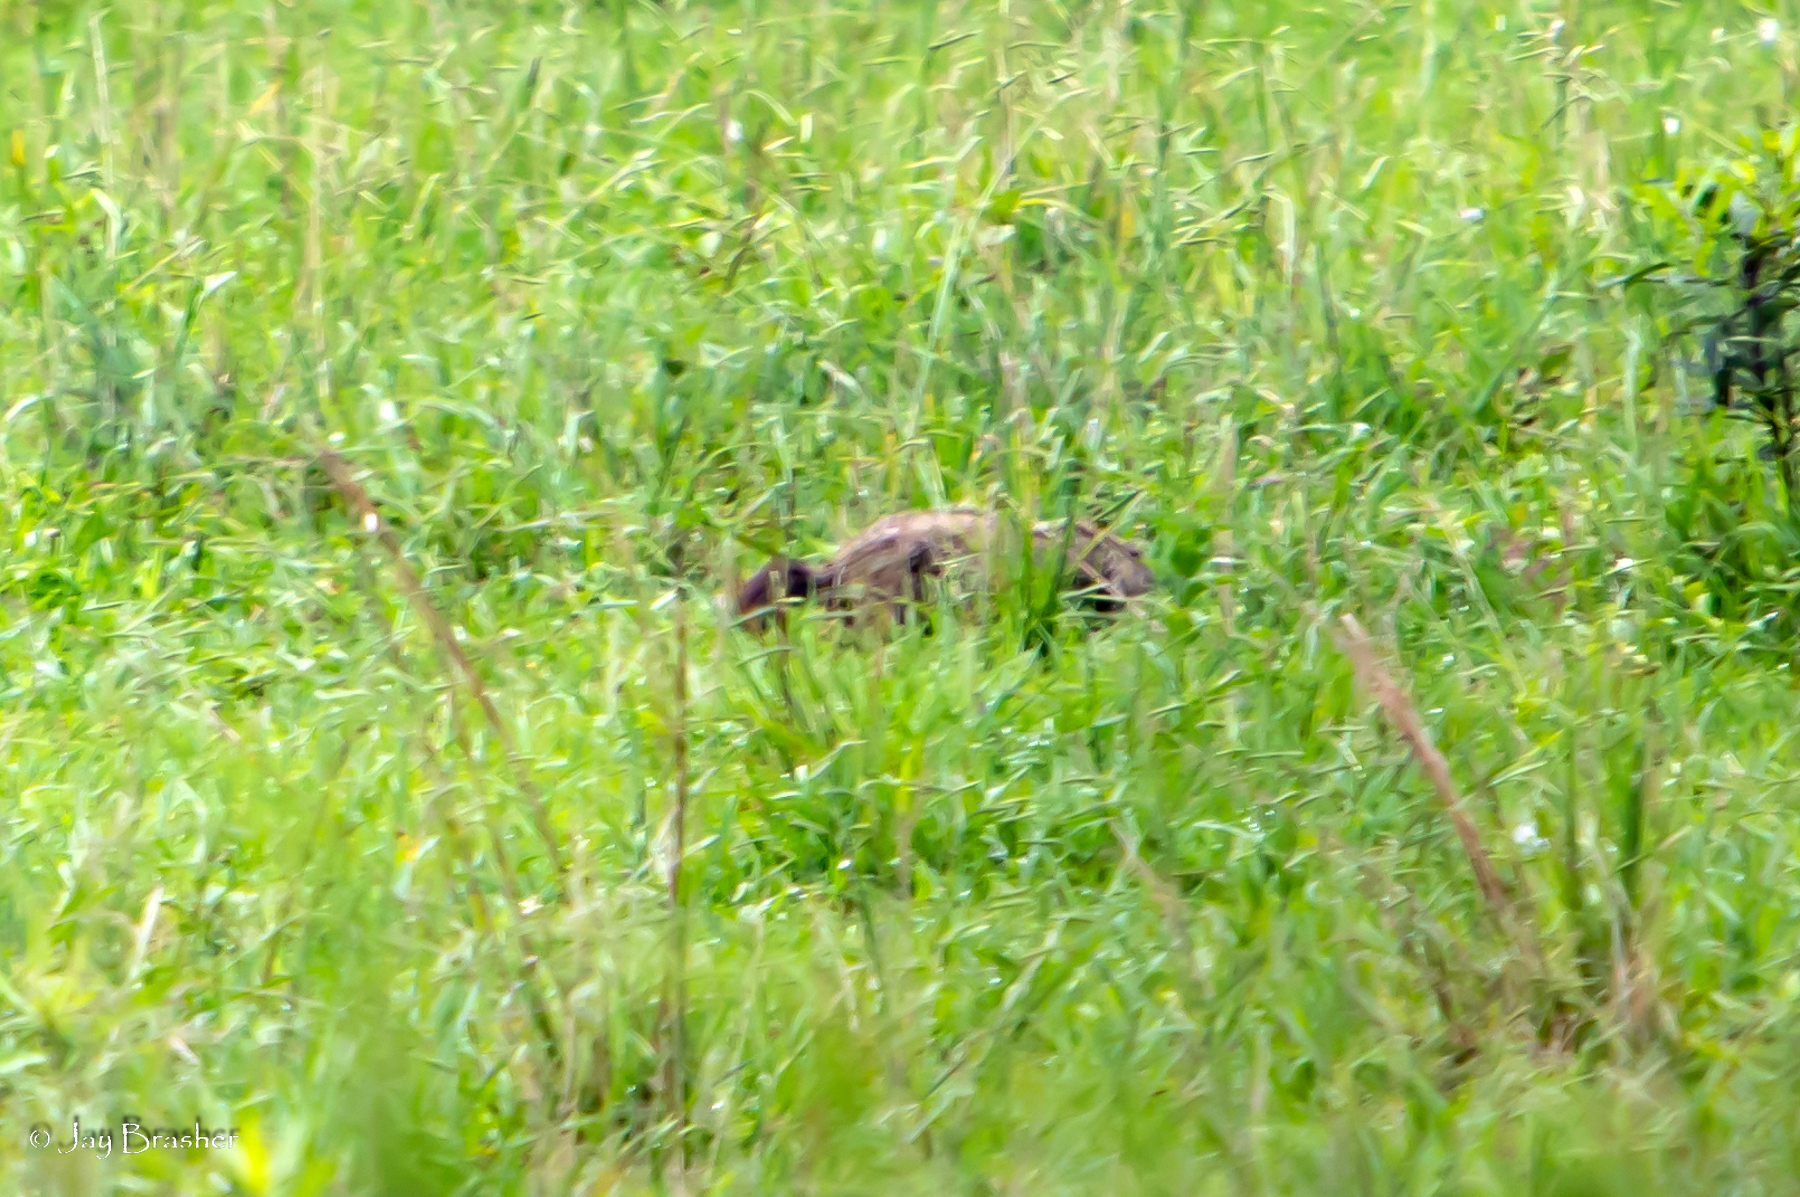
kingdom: Animalia
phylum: Chordata
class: Mammalia
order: Rodentia
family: Sciuridae
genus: Marmota
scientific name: Marmota monax
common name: Groundhog
